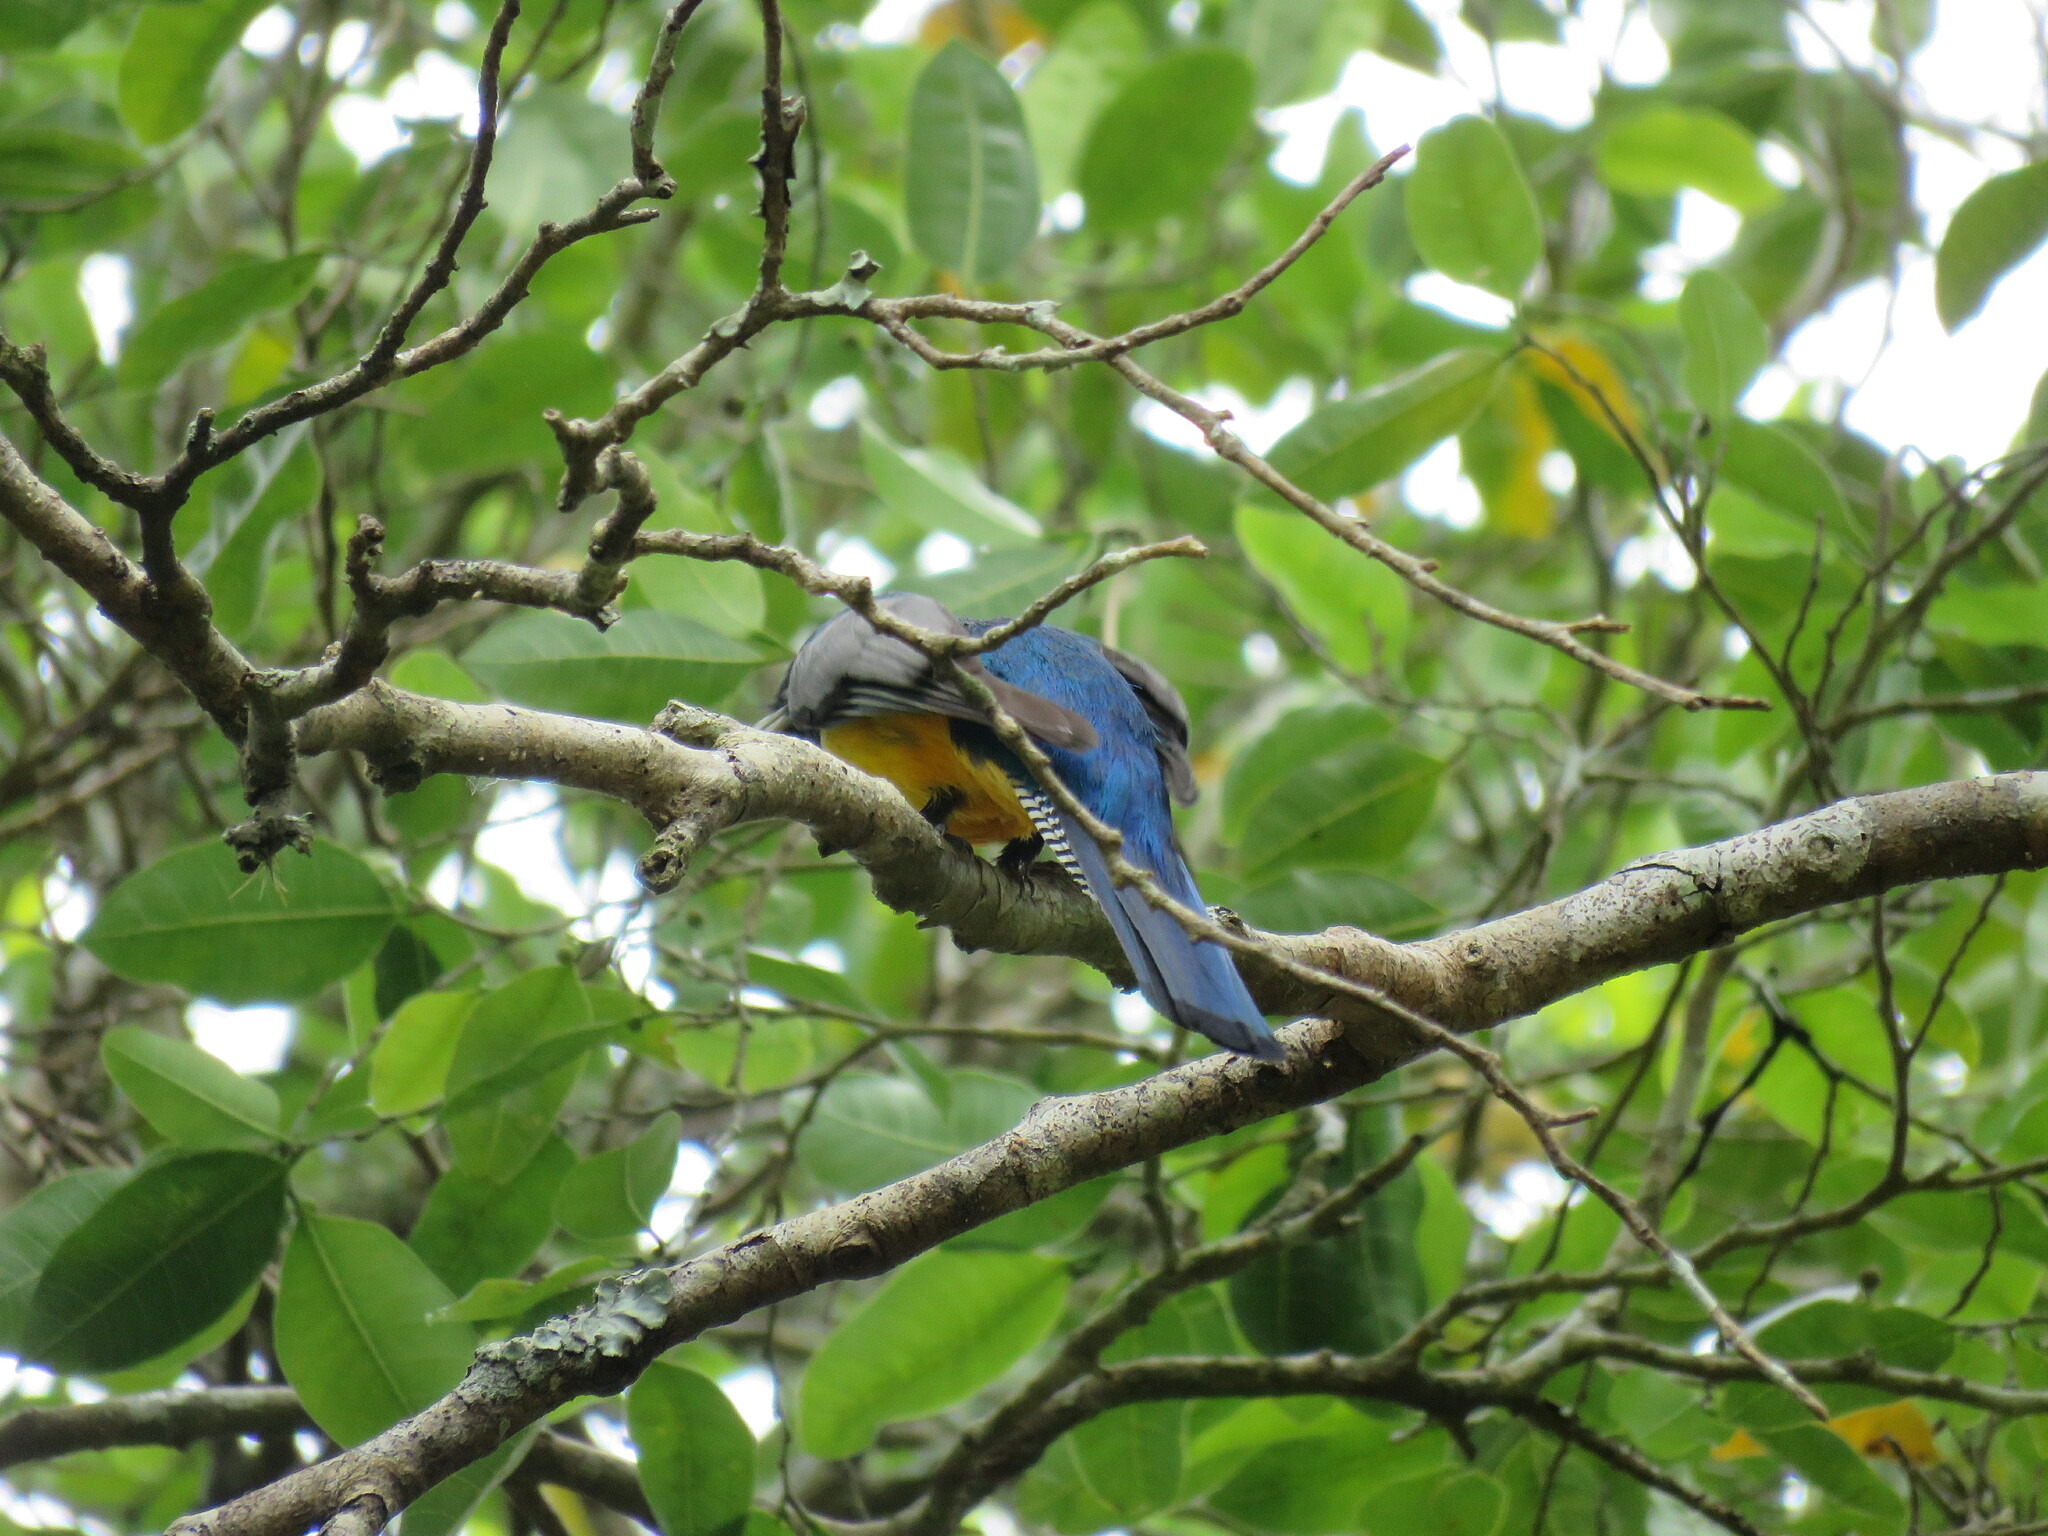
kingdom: Animalia
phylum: Chordata
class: Aves
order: Trogoniformes
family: Trogonidae
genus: Trogon
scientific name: Trogon caligatus
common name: Gartered trogon
